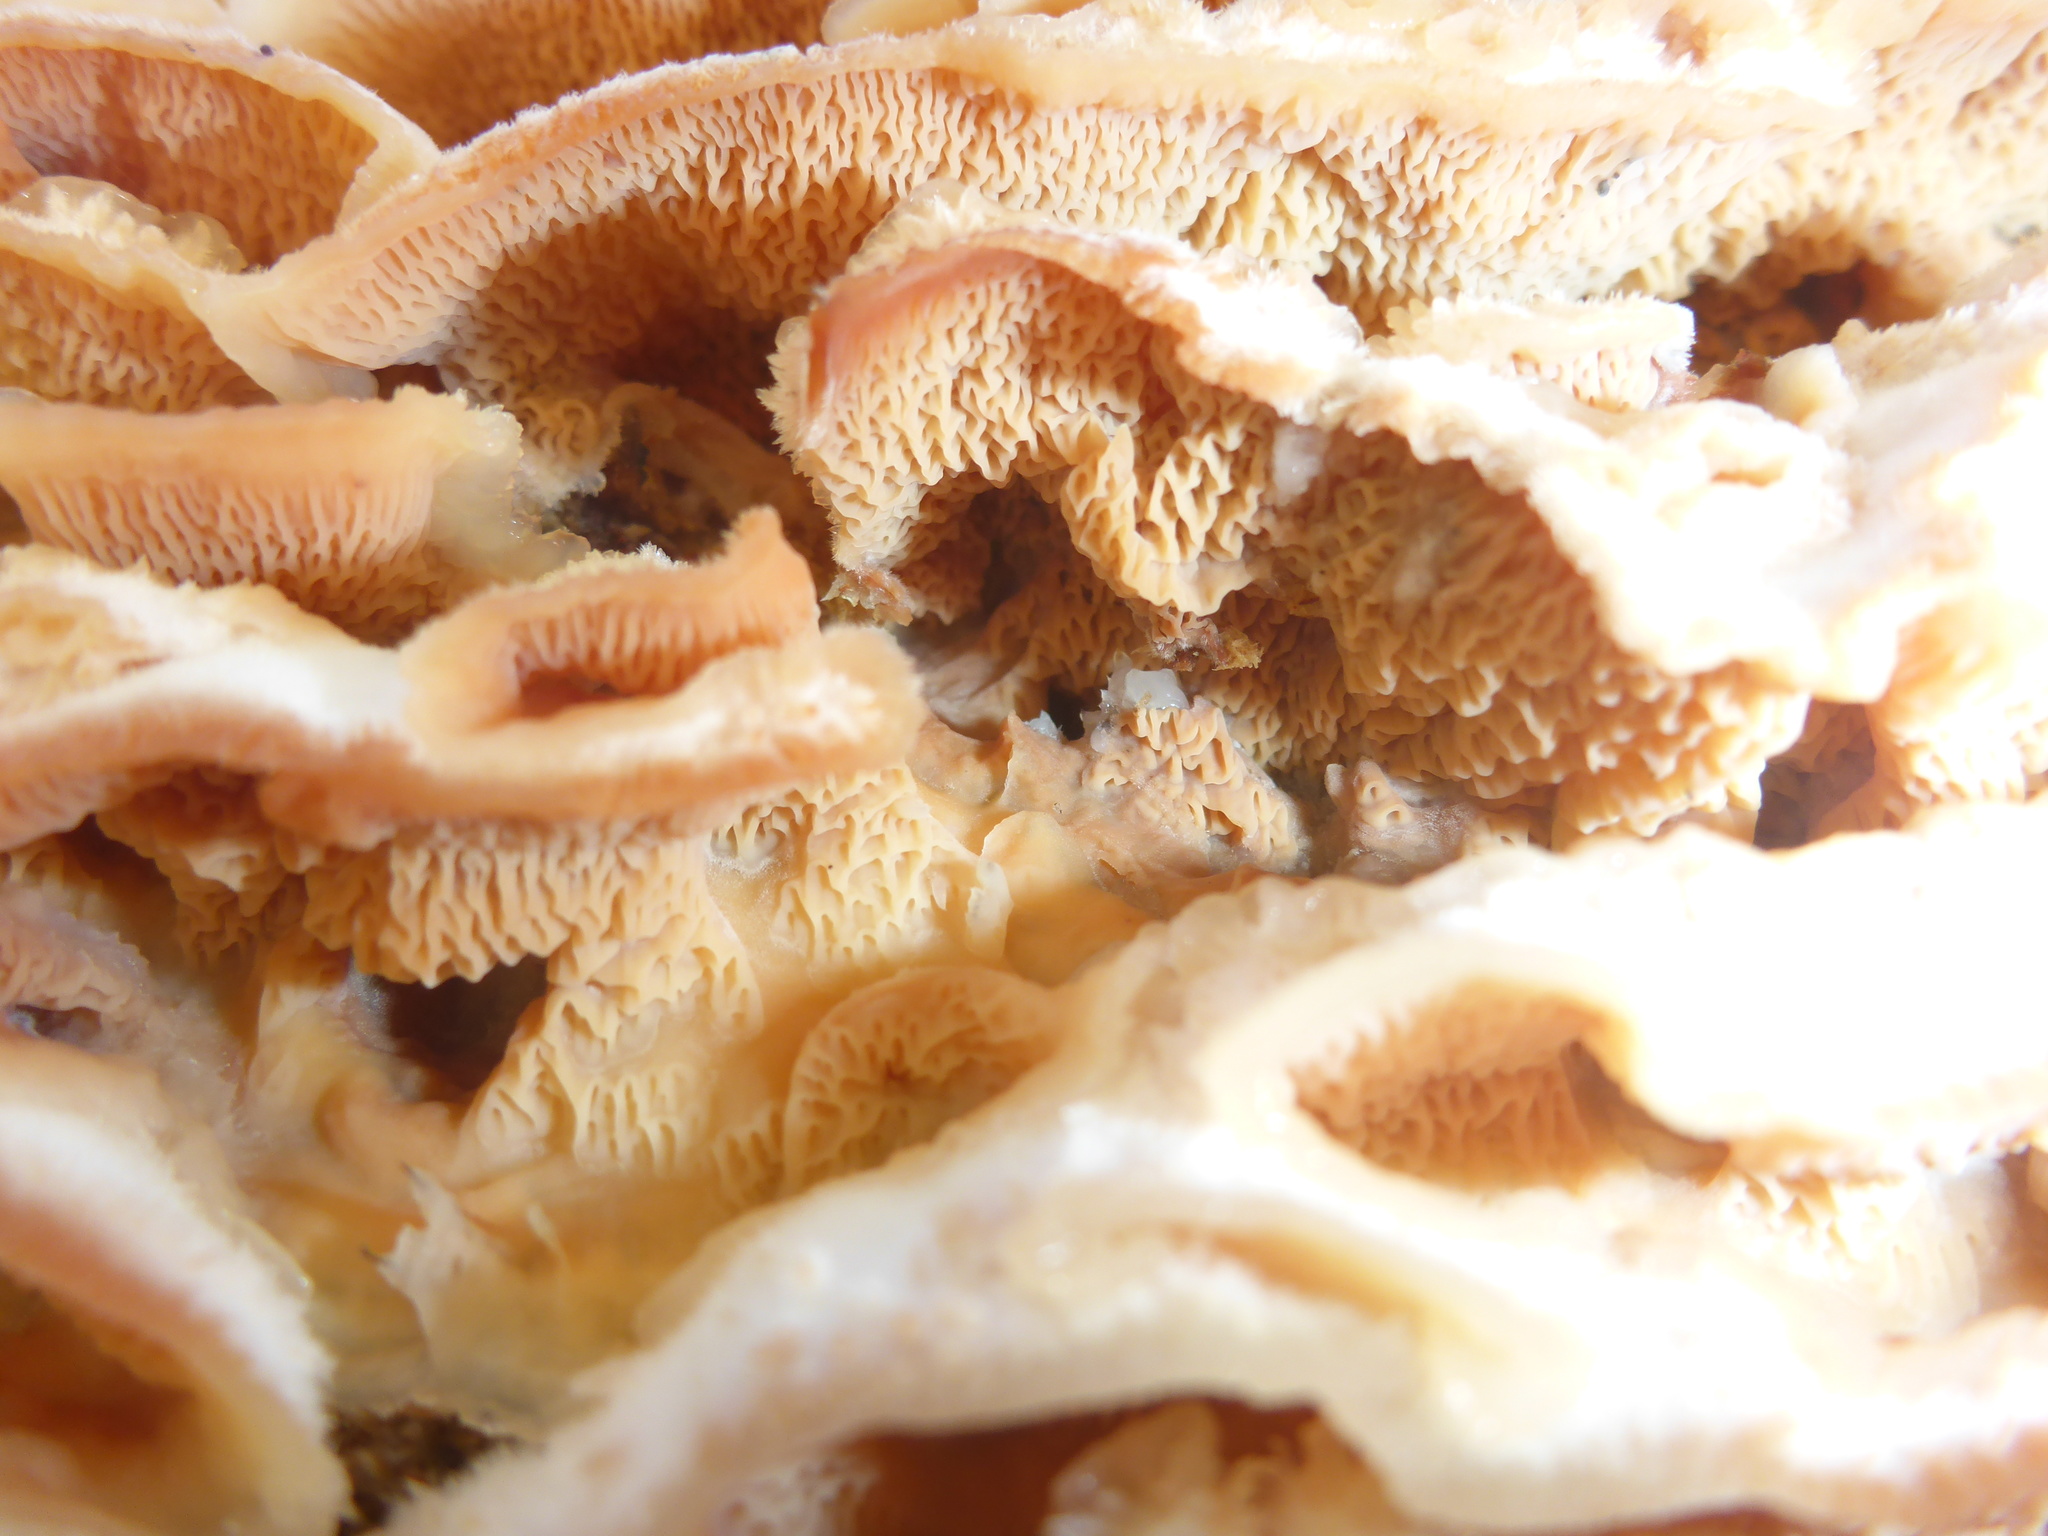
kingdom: Fungi
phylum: Basidiomycota
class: Agaricomycetes
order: Polyporales
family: Meruliaceae
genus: Phlebia
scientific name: Phlebia tremellosa
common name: Jelly rot
